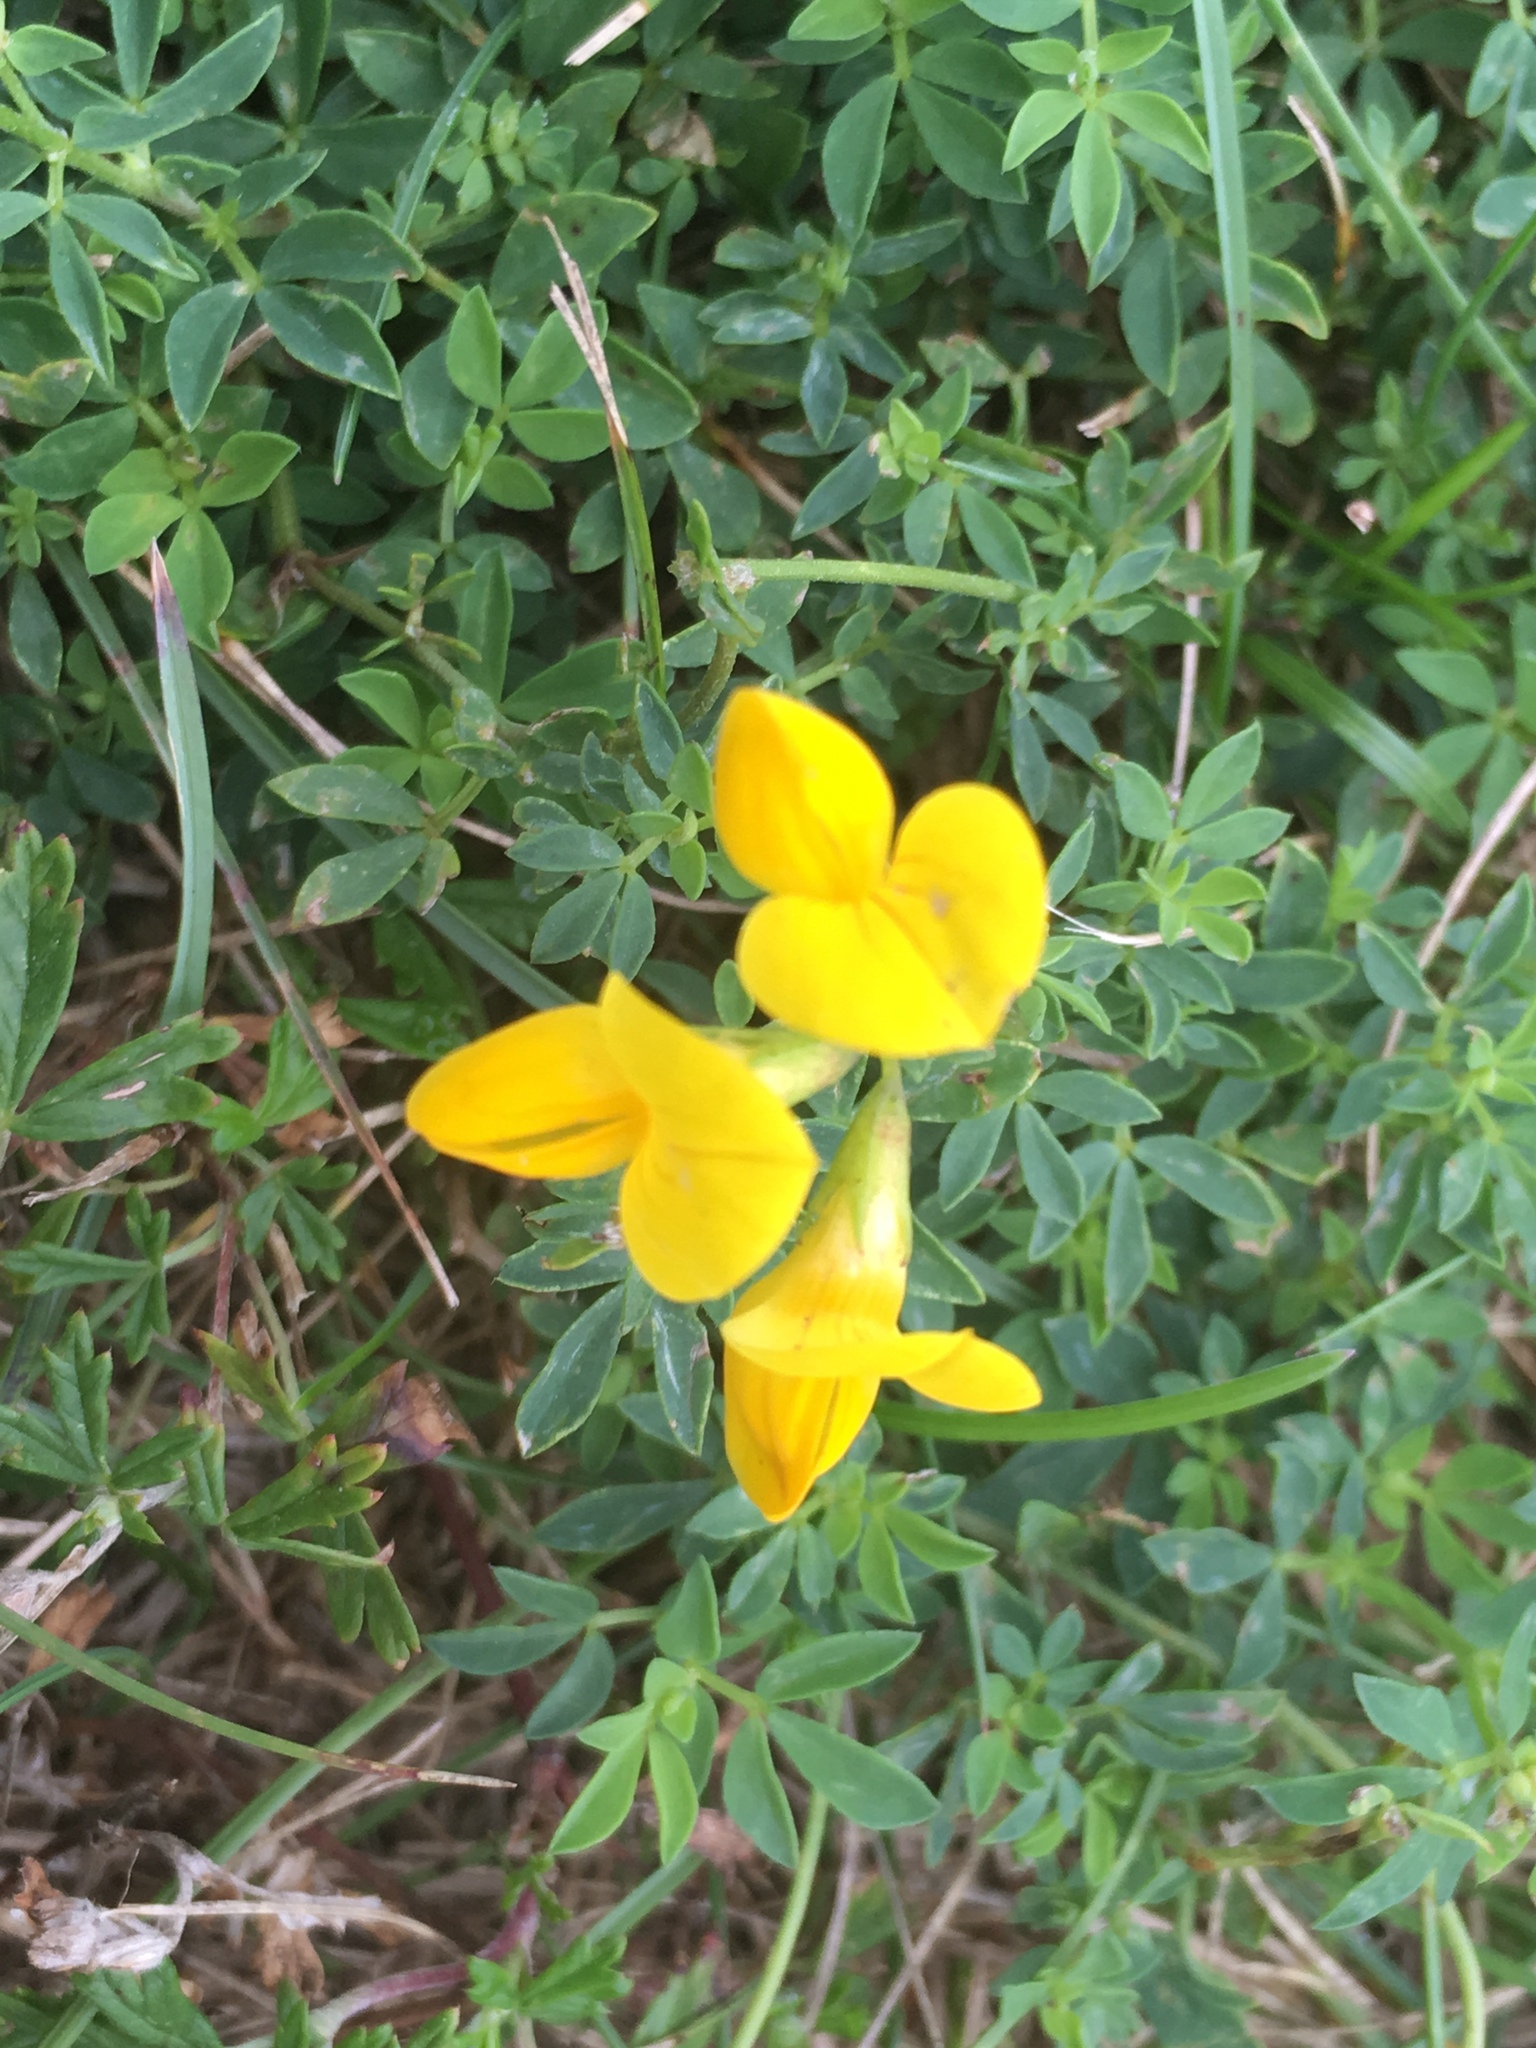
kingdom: Plantae
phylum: Tracheophyta
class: Magnoliopsida
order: Fabales
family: Fabaceae
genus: Lotus
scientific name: Lotus corniculatus
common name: Common bird's-foot-trefoil
